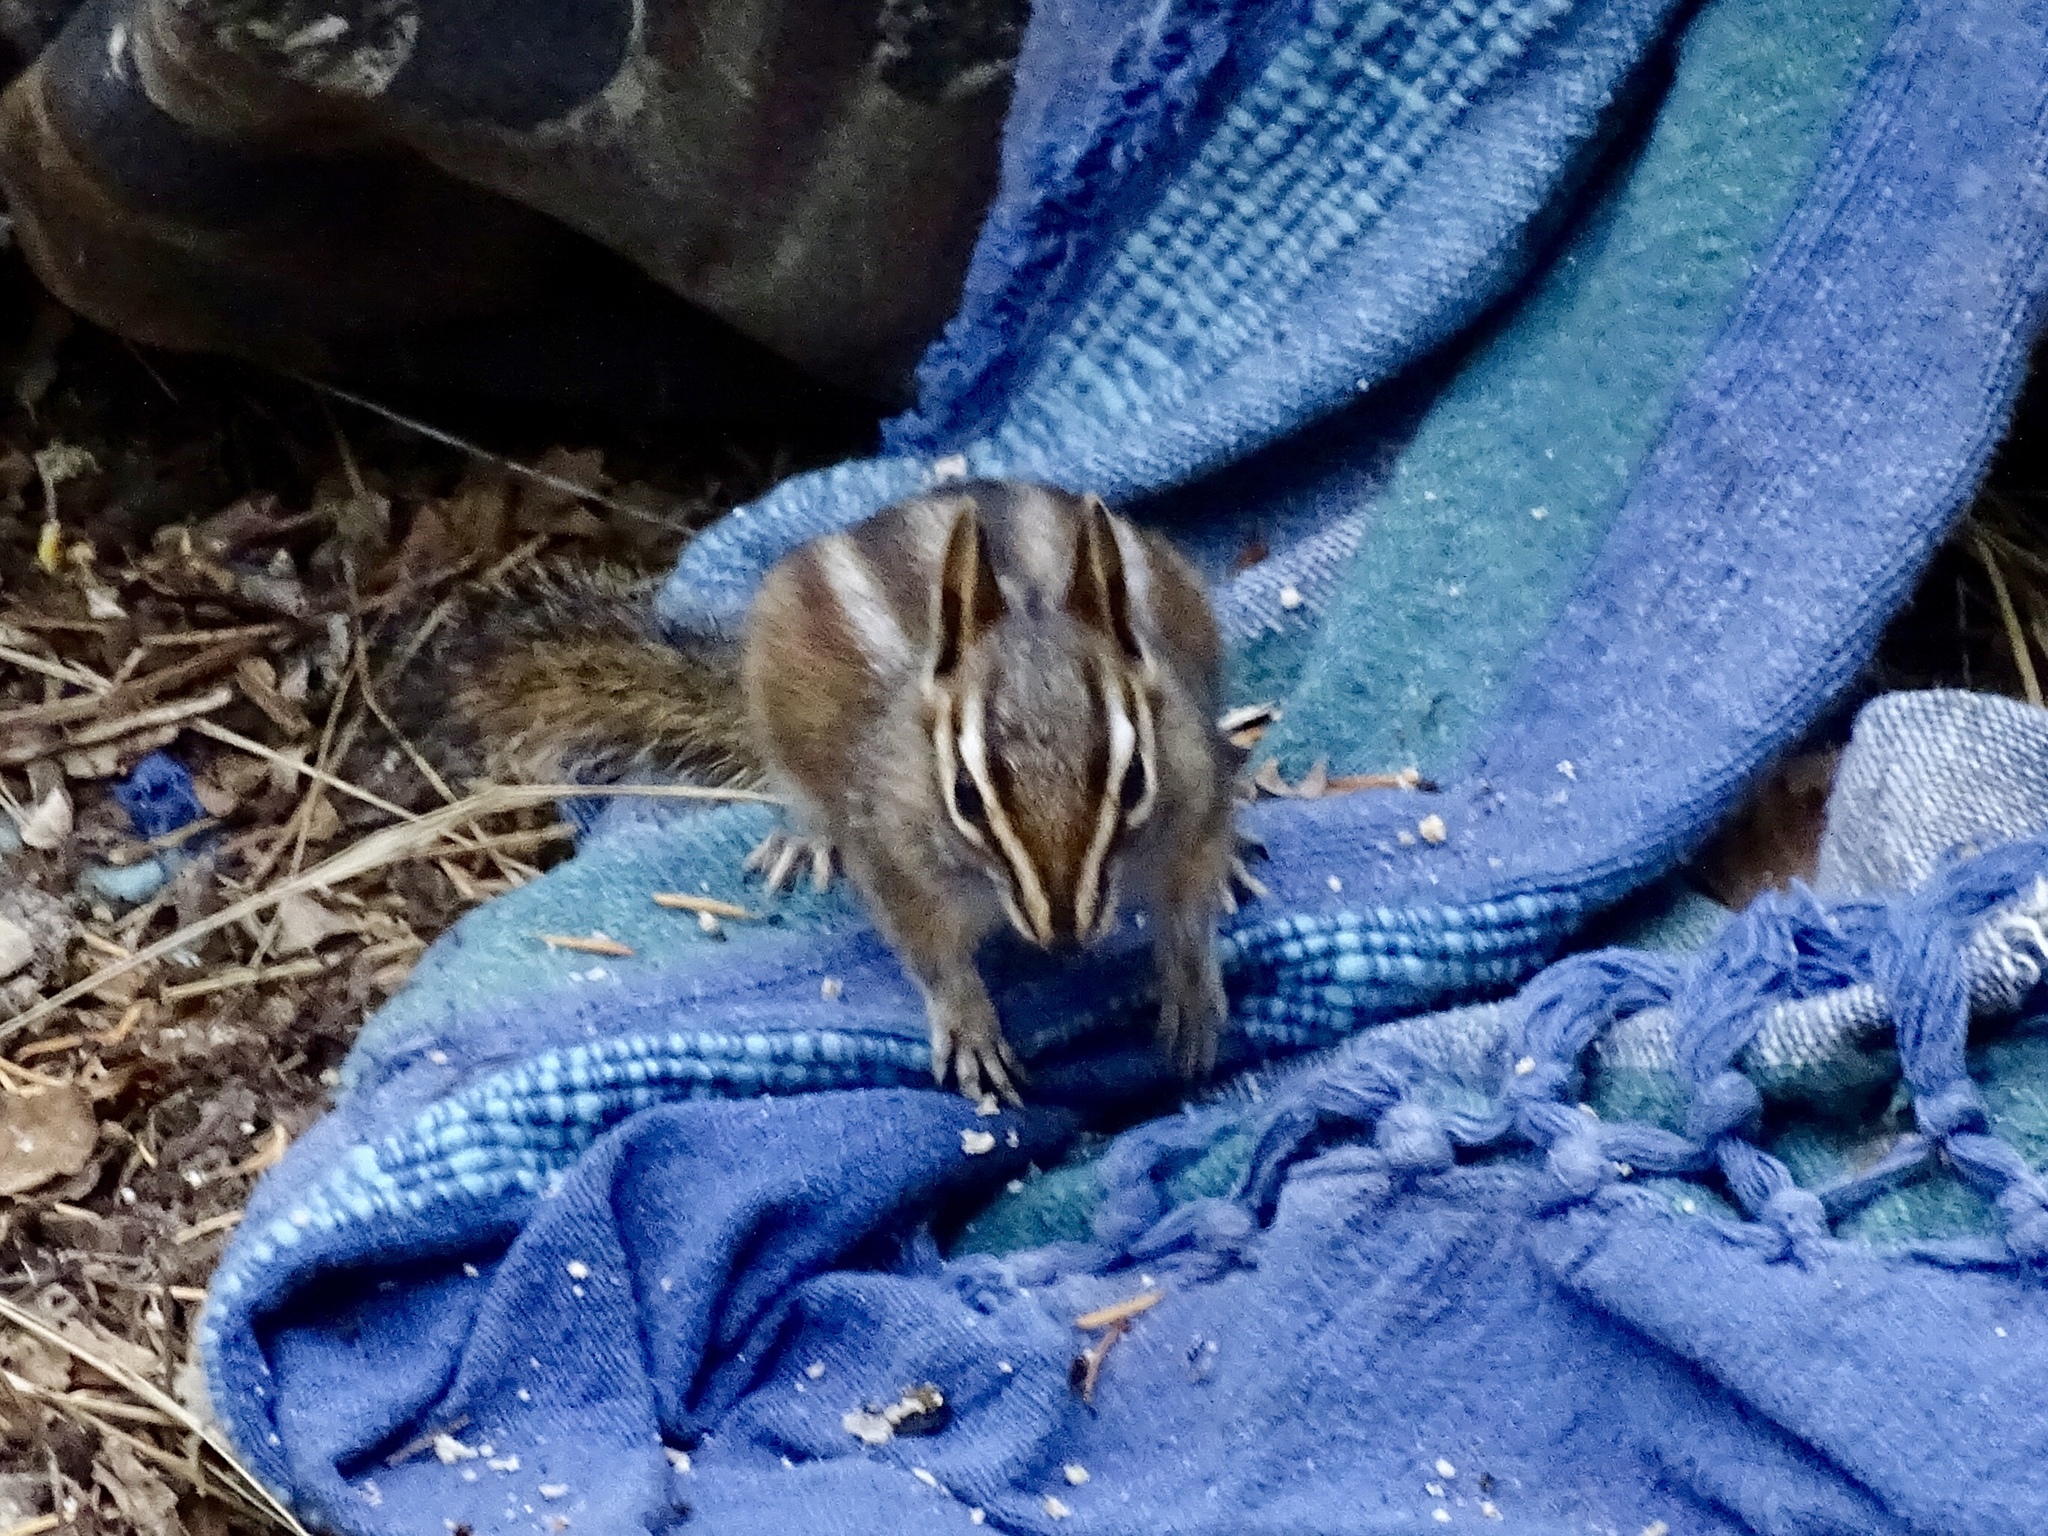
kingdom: Animalia
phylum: Chordata
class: Mammalia
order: Rodentia
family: Sciuridae
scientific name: Sciuridae
